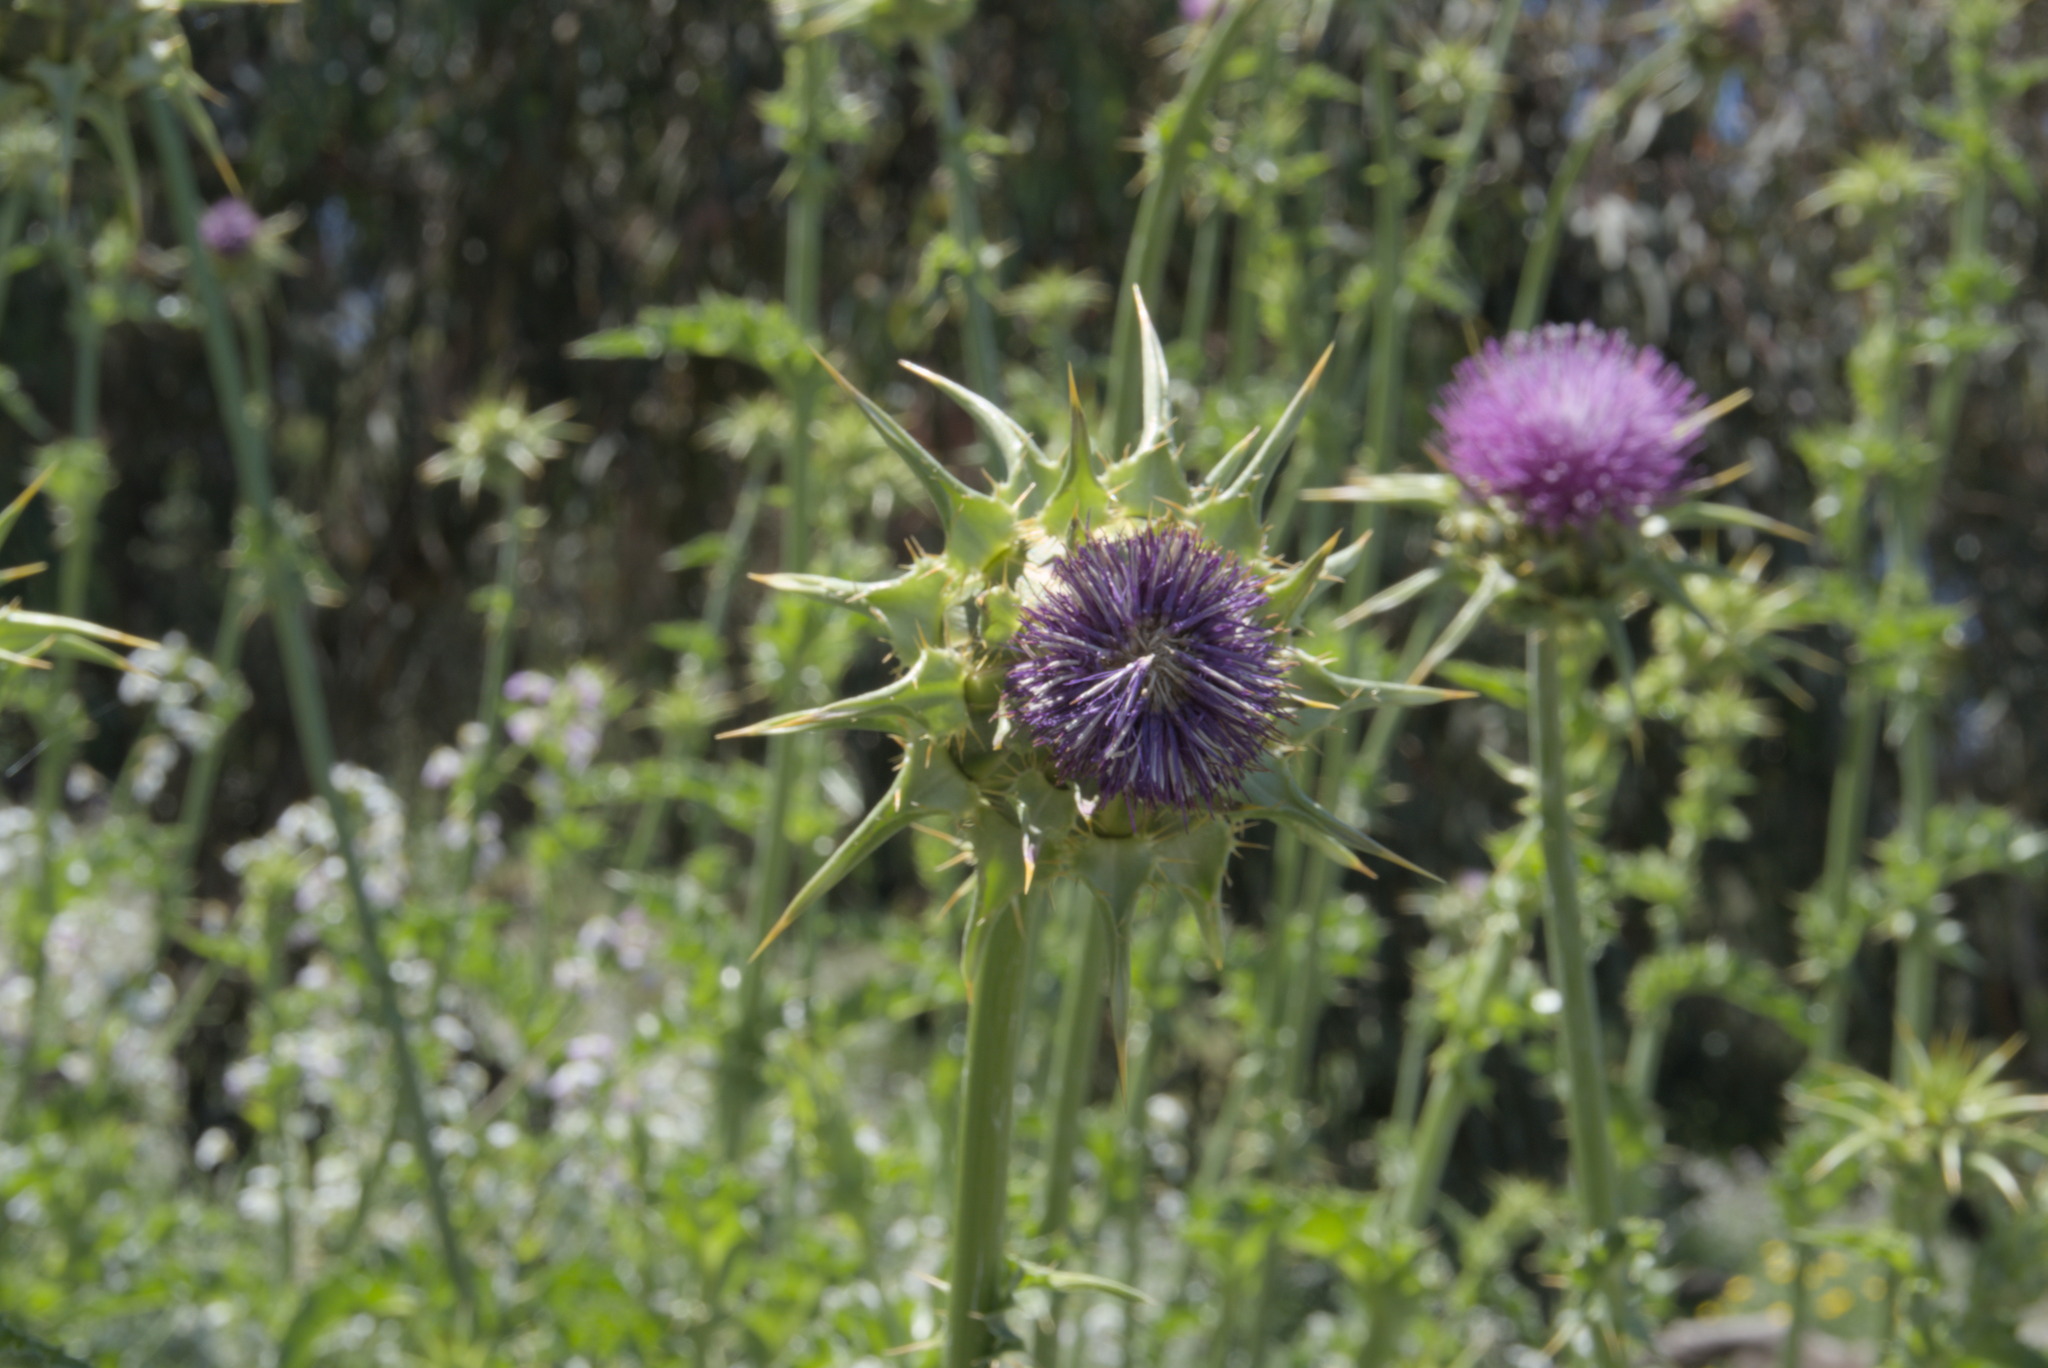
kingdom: Plantae
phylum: Tracheophyta
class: Magnoliopsida
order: Asterales
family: Asteraceae
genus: Silybum
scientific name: Silybum marianum
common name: Milk thistle
